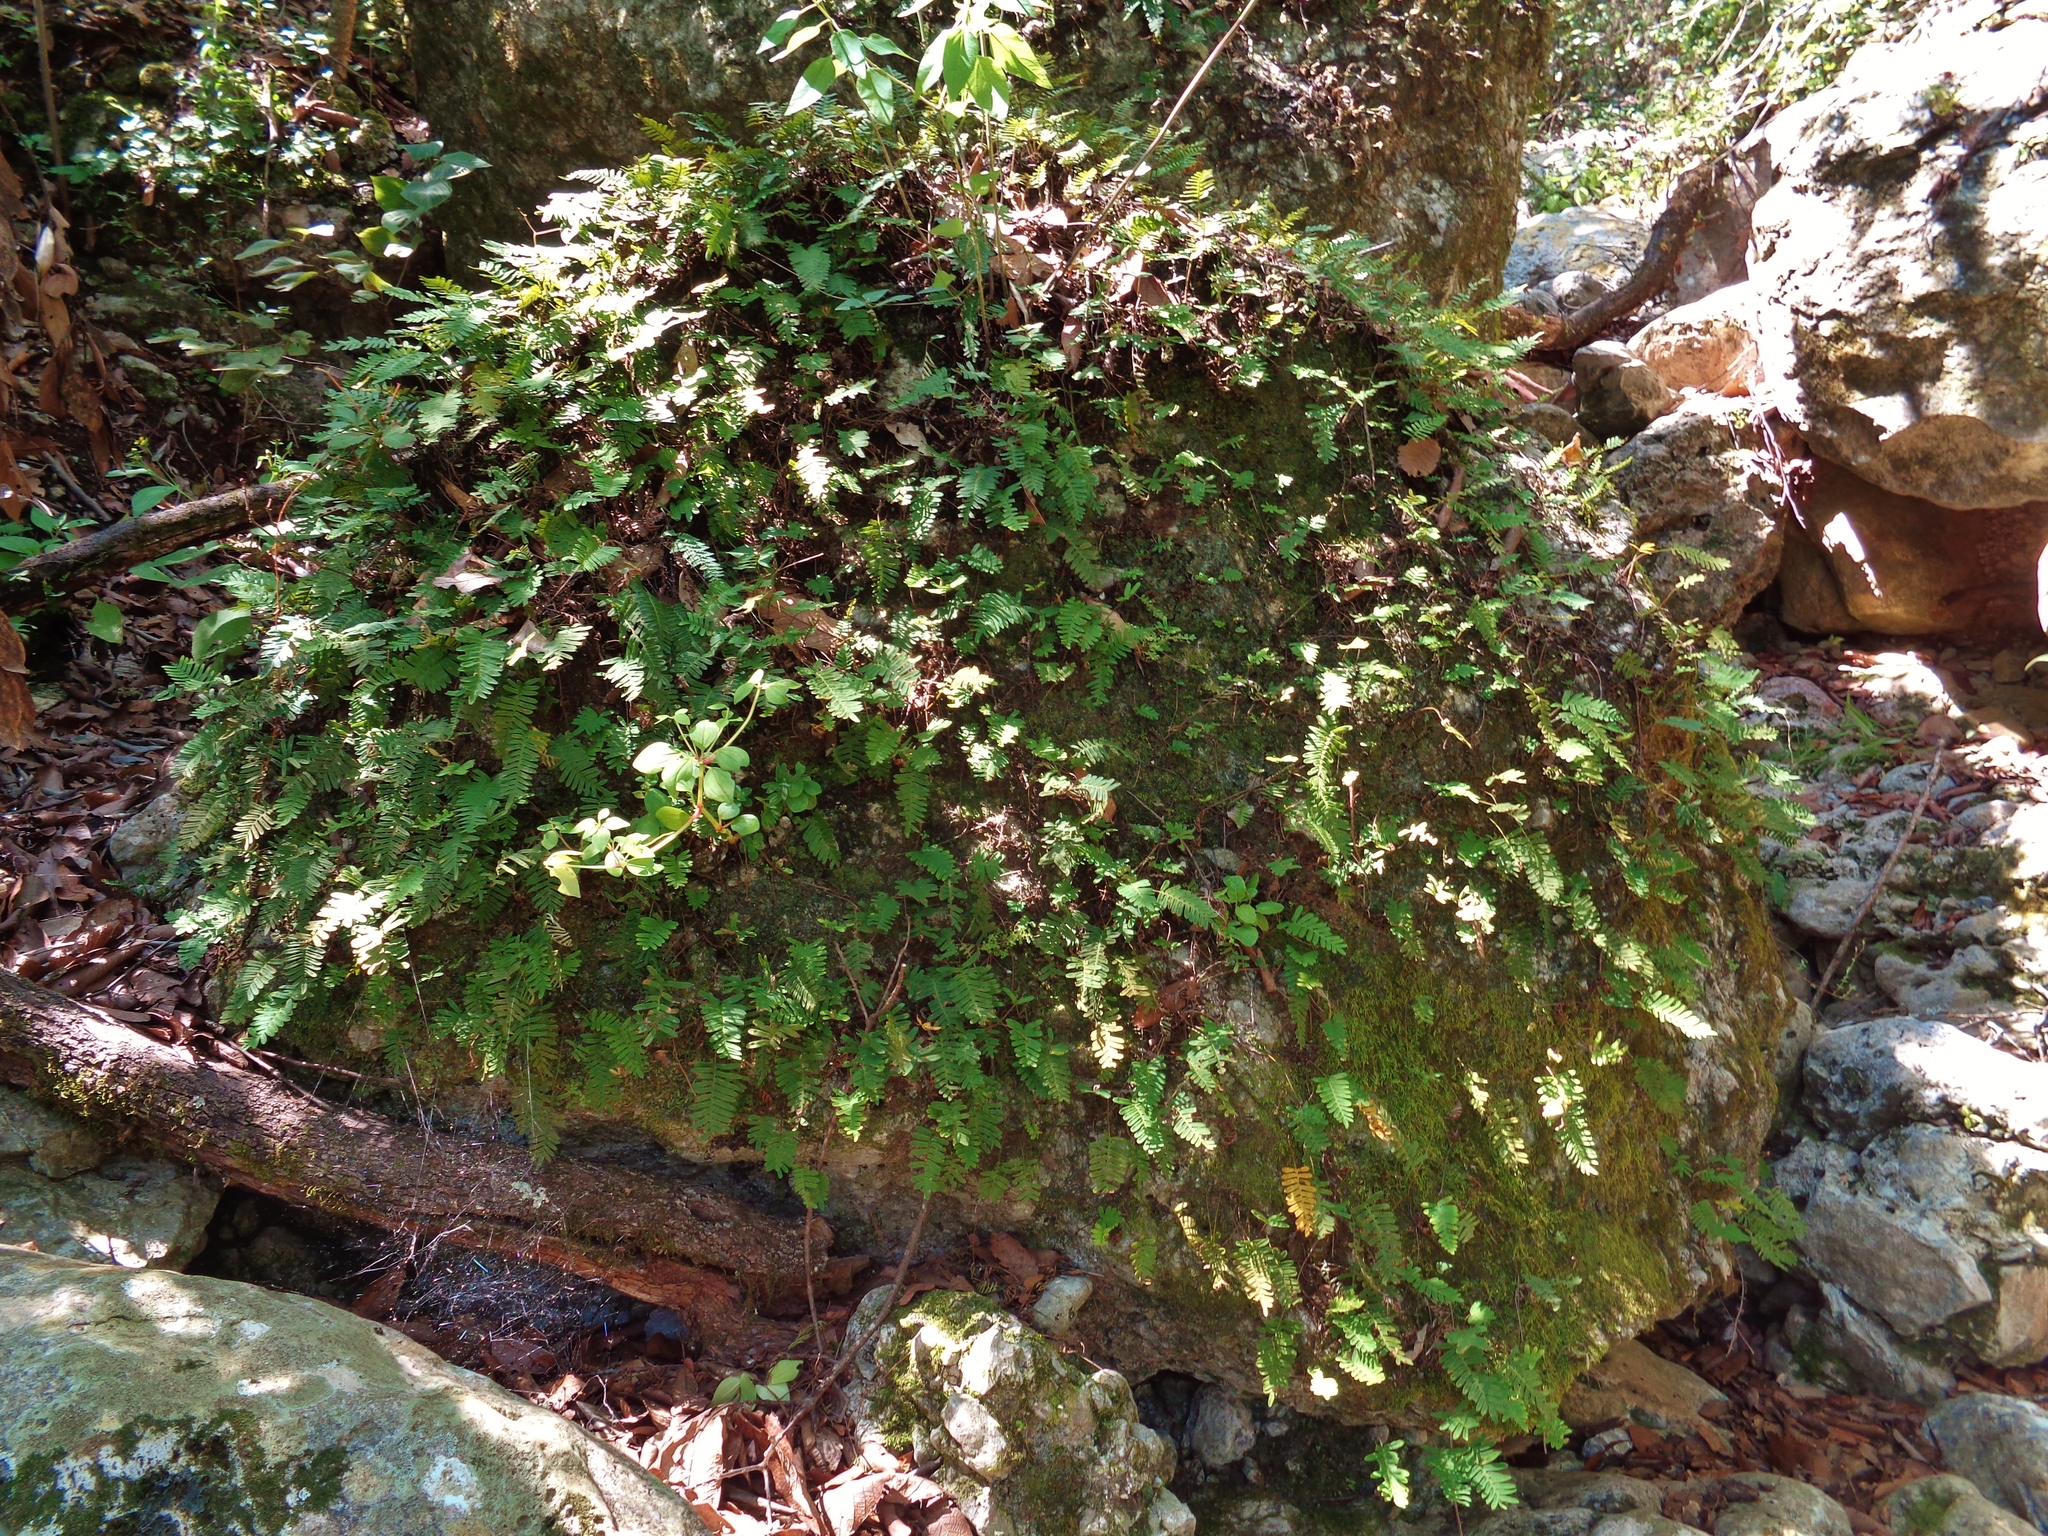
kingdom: Plantae
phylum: Tracheophyta
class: Polypodiopsida
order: Polypodiales
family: Polypodiaceae
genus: Pleopeltis
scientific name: Pleopeltis michauxiana
